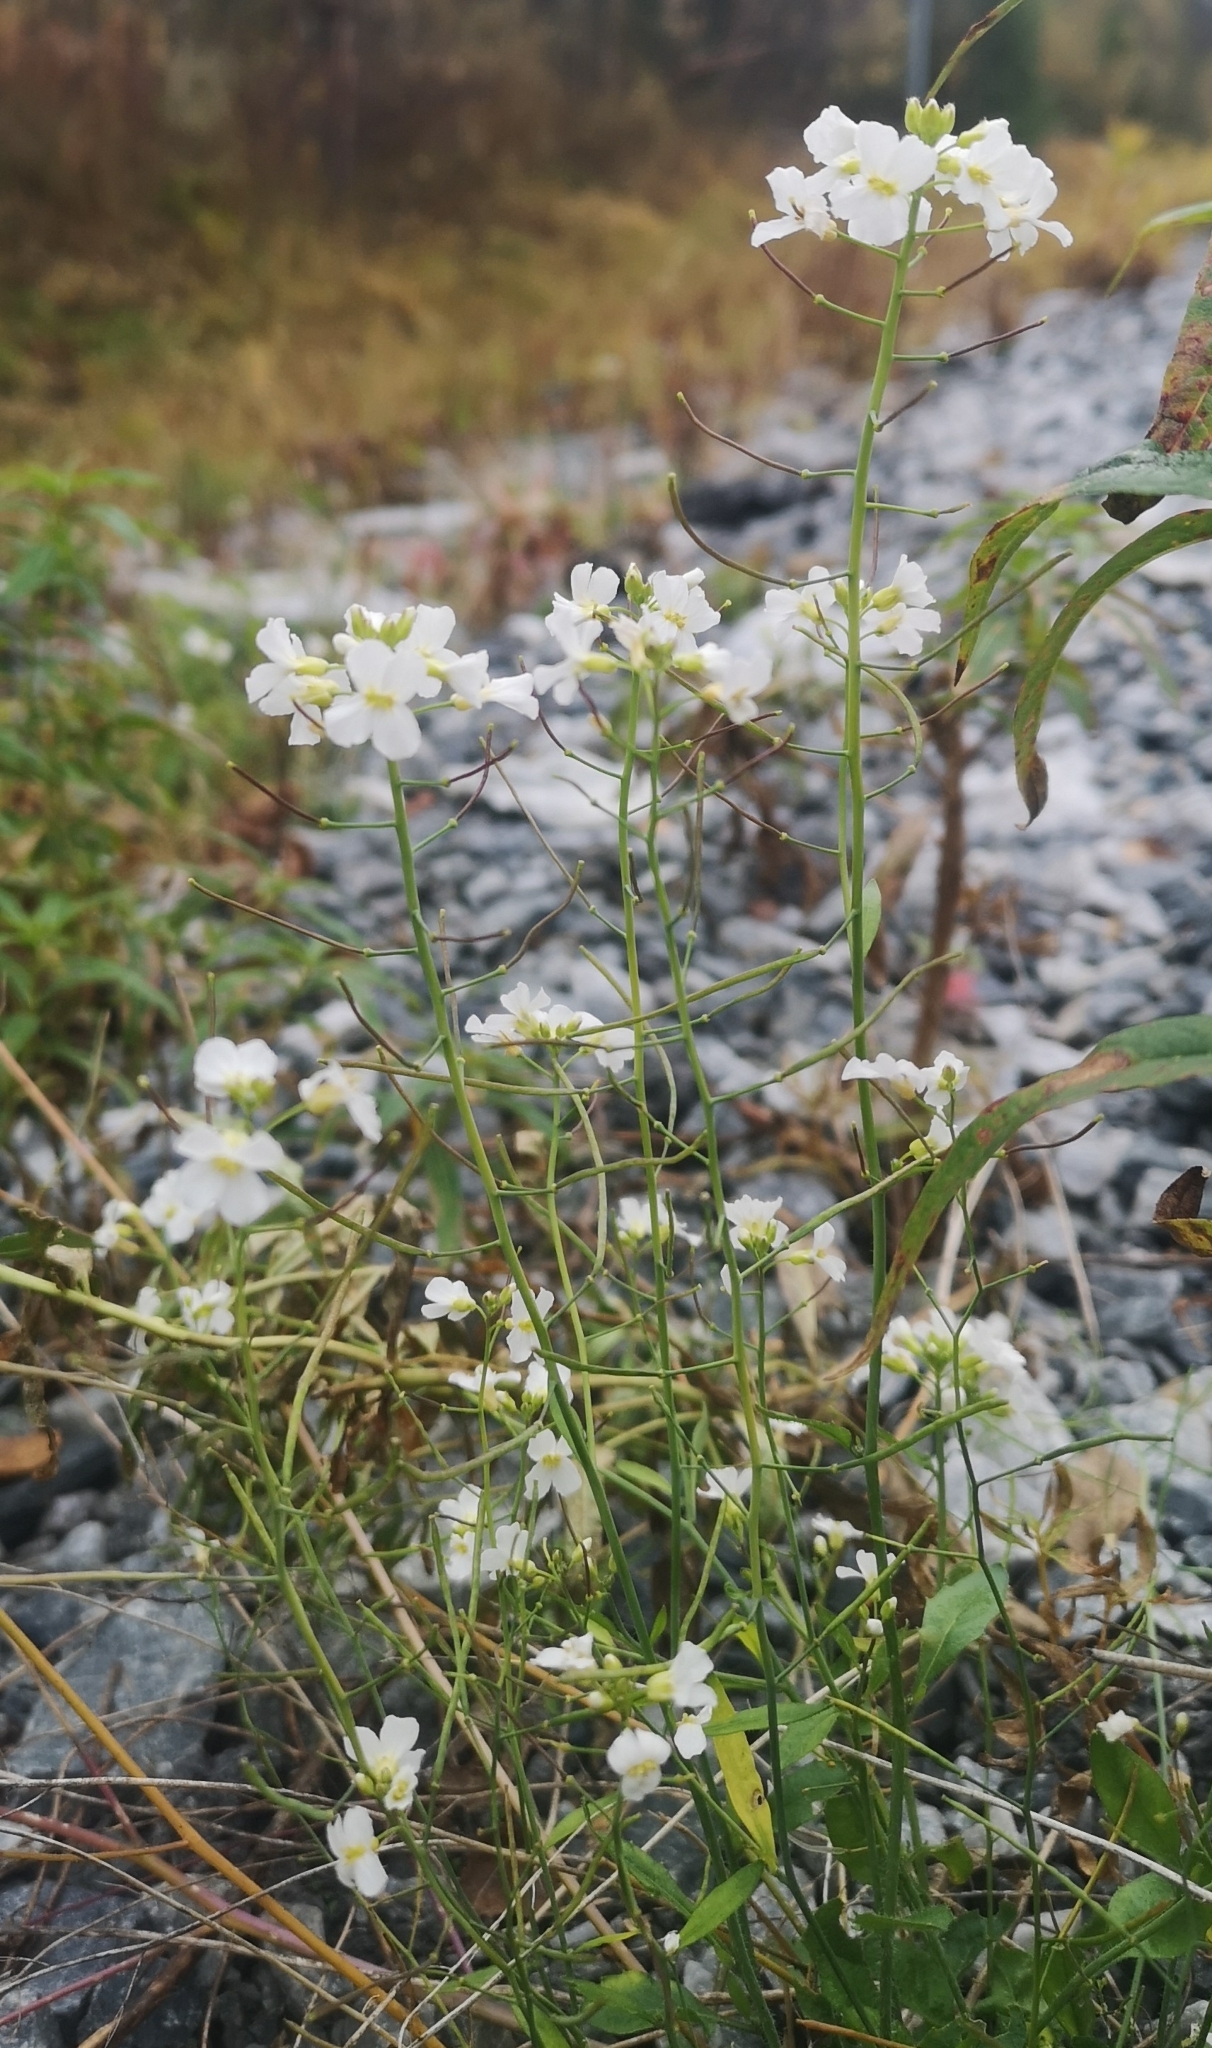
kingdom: Plantae
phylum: Tracheophyta
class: Magnoliopsida
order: Brassicales
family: Brassicaceae
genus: Arabidopsis
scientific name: Arabidopsis arenosa
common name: Sand rock-cress
